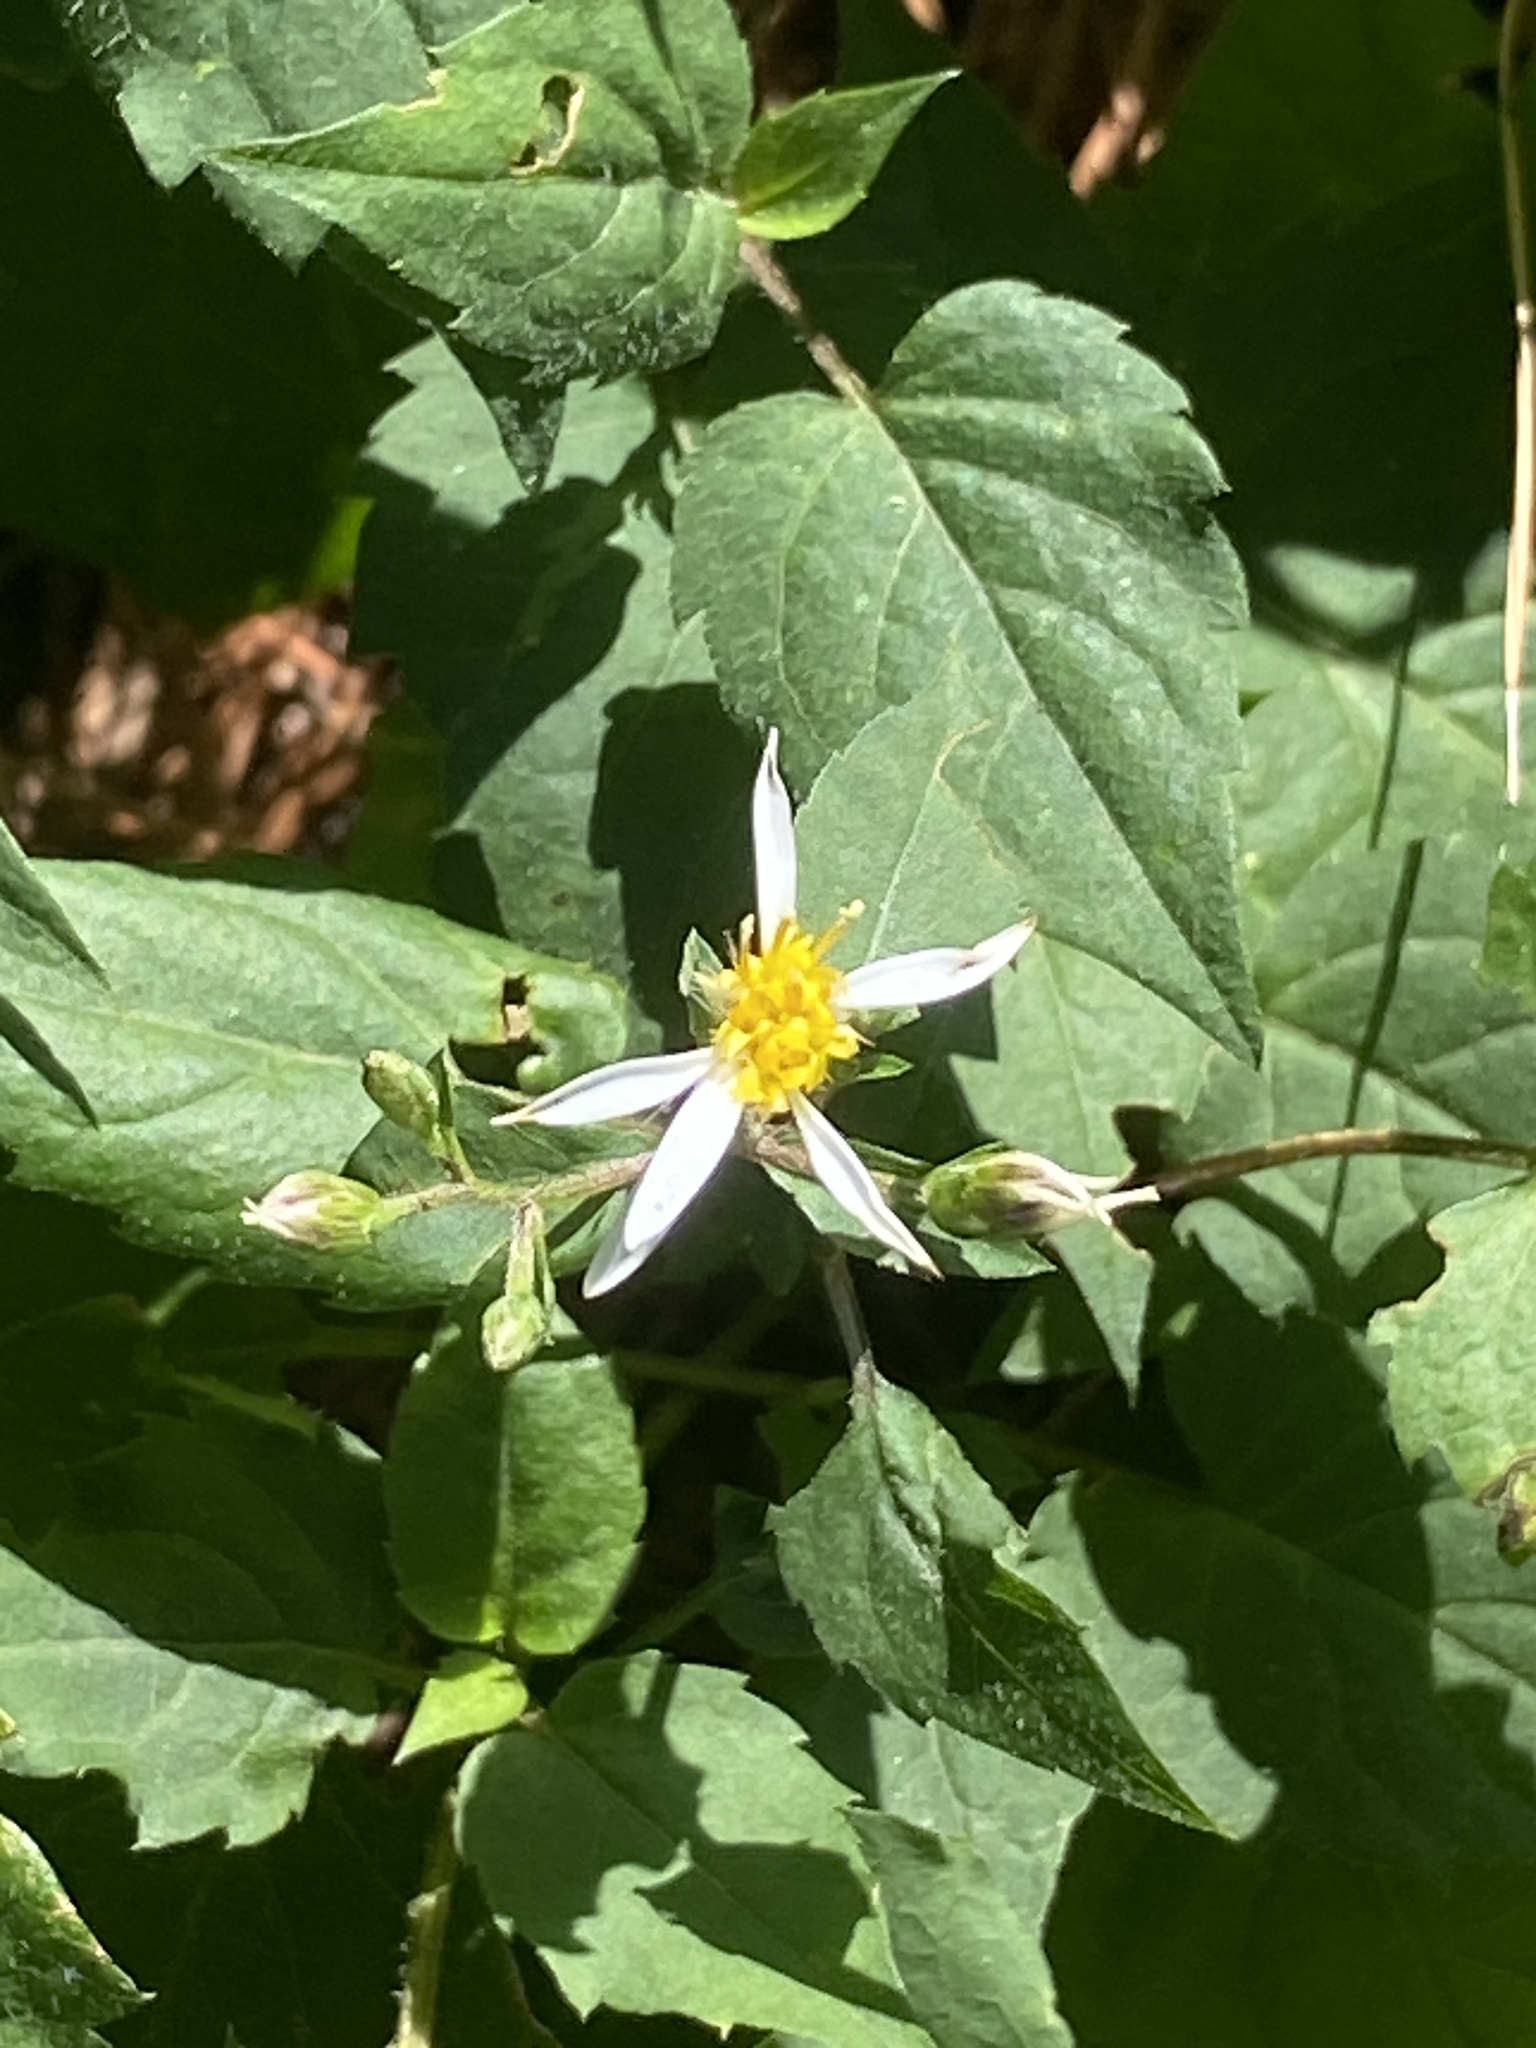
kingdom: Plantae
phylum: Tracheophyta
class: Magnoliopsida
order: Asterales
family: Asteraceae
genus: Eurybia
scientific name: Eurybia divaricata
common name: White wood aster
